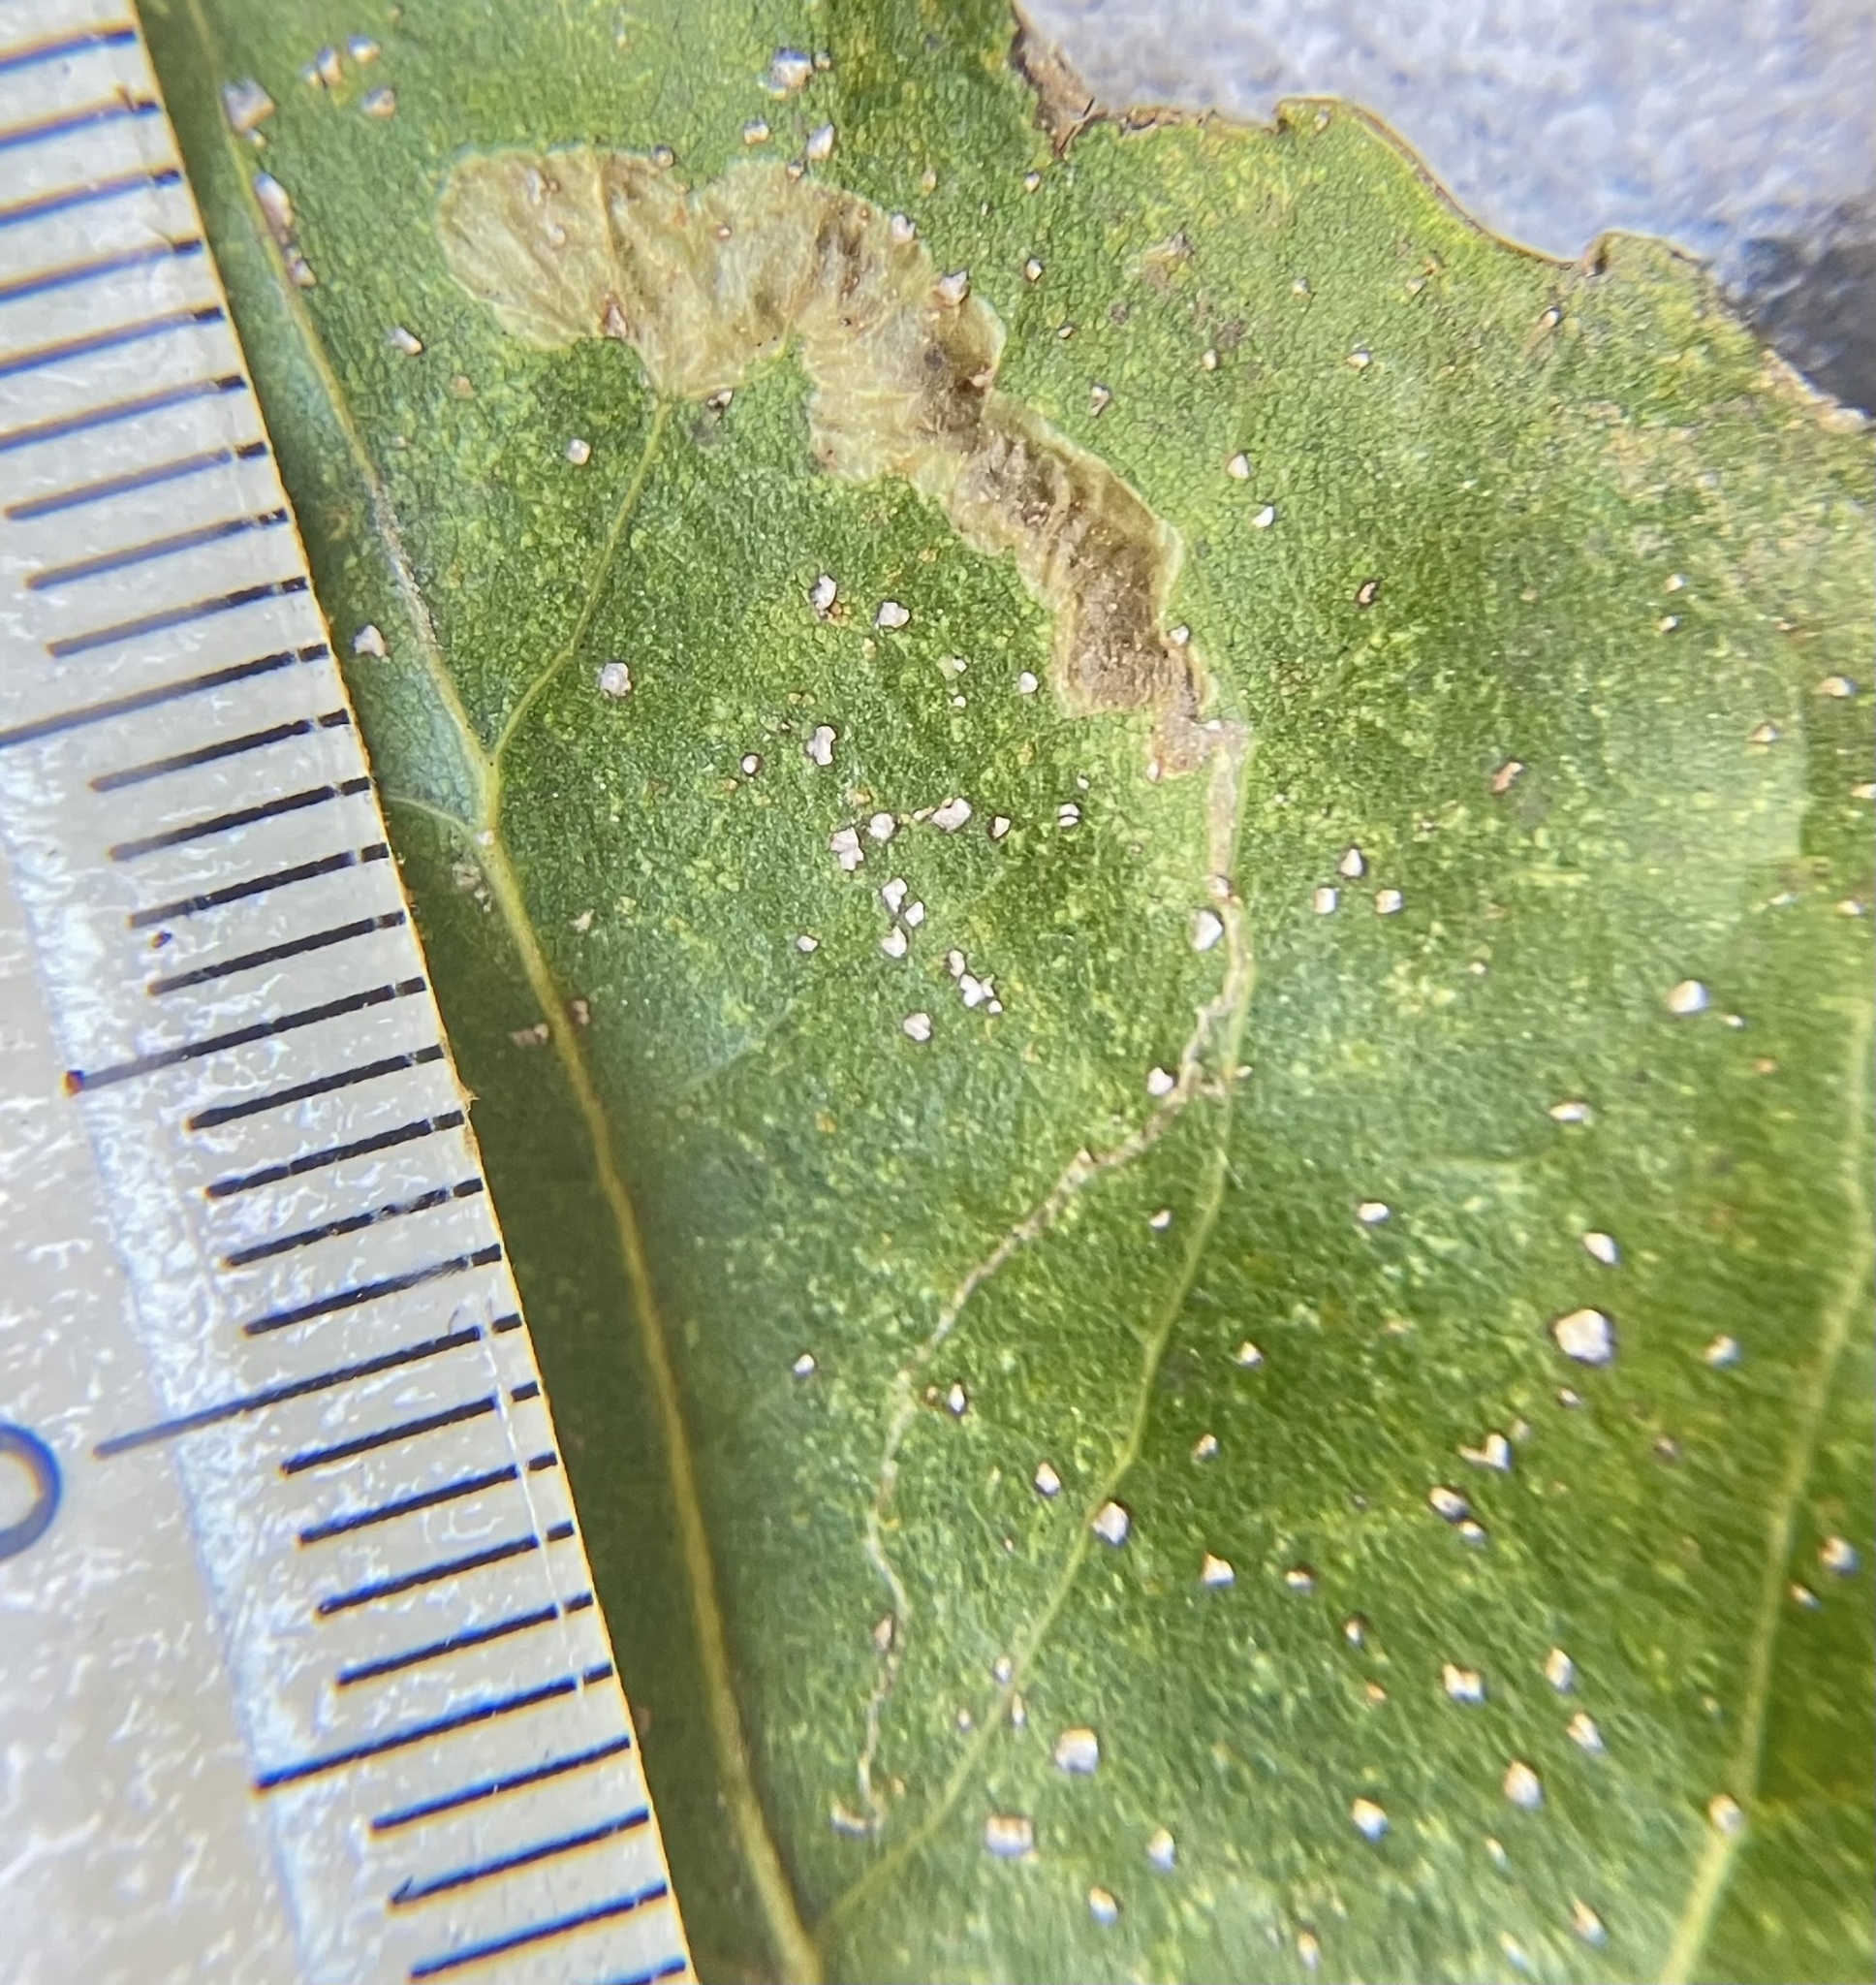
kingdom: Animalia
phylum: Arthropoda
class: Insecta
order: Lepidoptera
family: Nepticulidae
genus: Ectoedemia
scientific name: Ectoedemia clemensella
